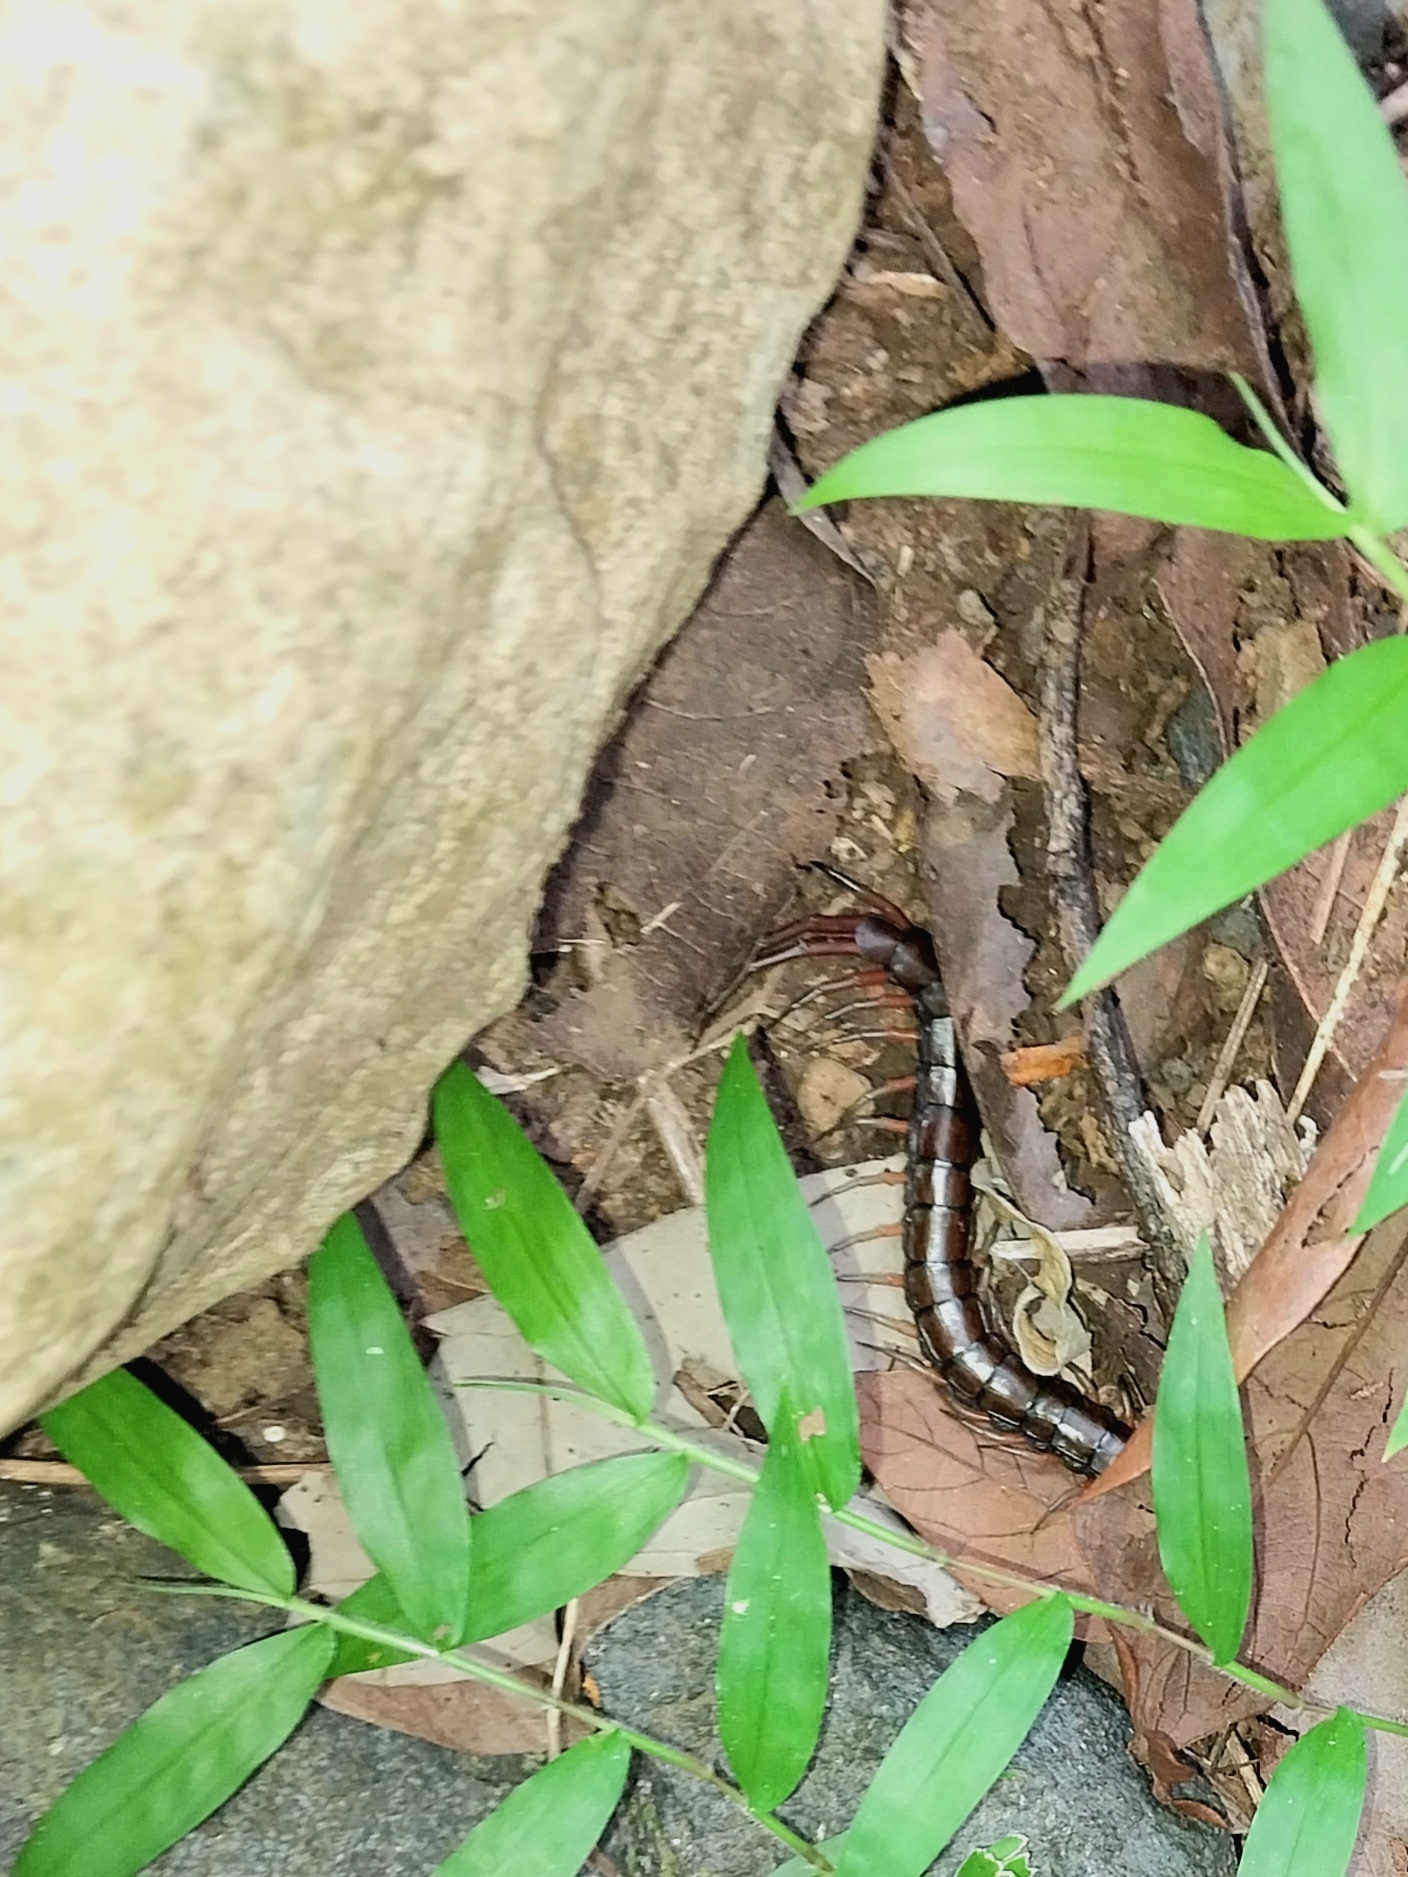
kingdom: Animalia
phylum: Arthropoda
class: Chilopoda
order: Scolopendromorpha
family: Scolopendridae
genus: Scolopendra
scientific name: Scolopendra subspinipes
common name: Centipede
